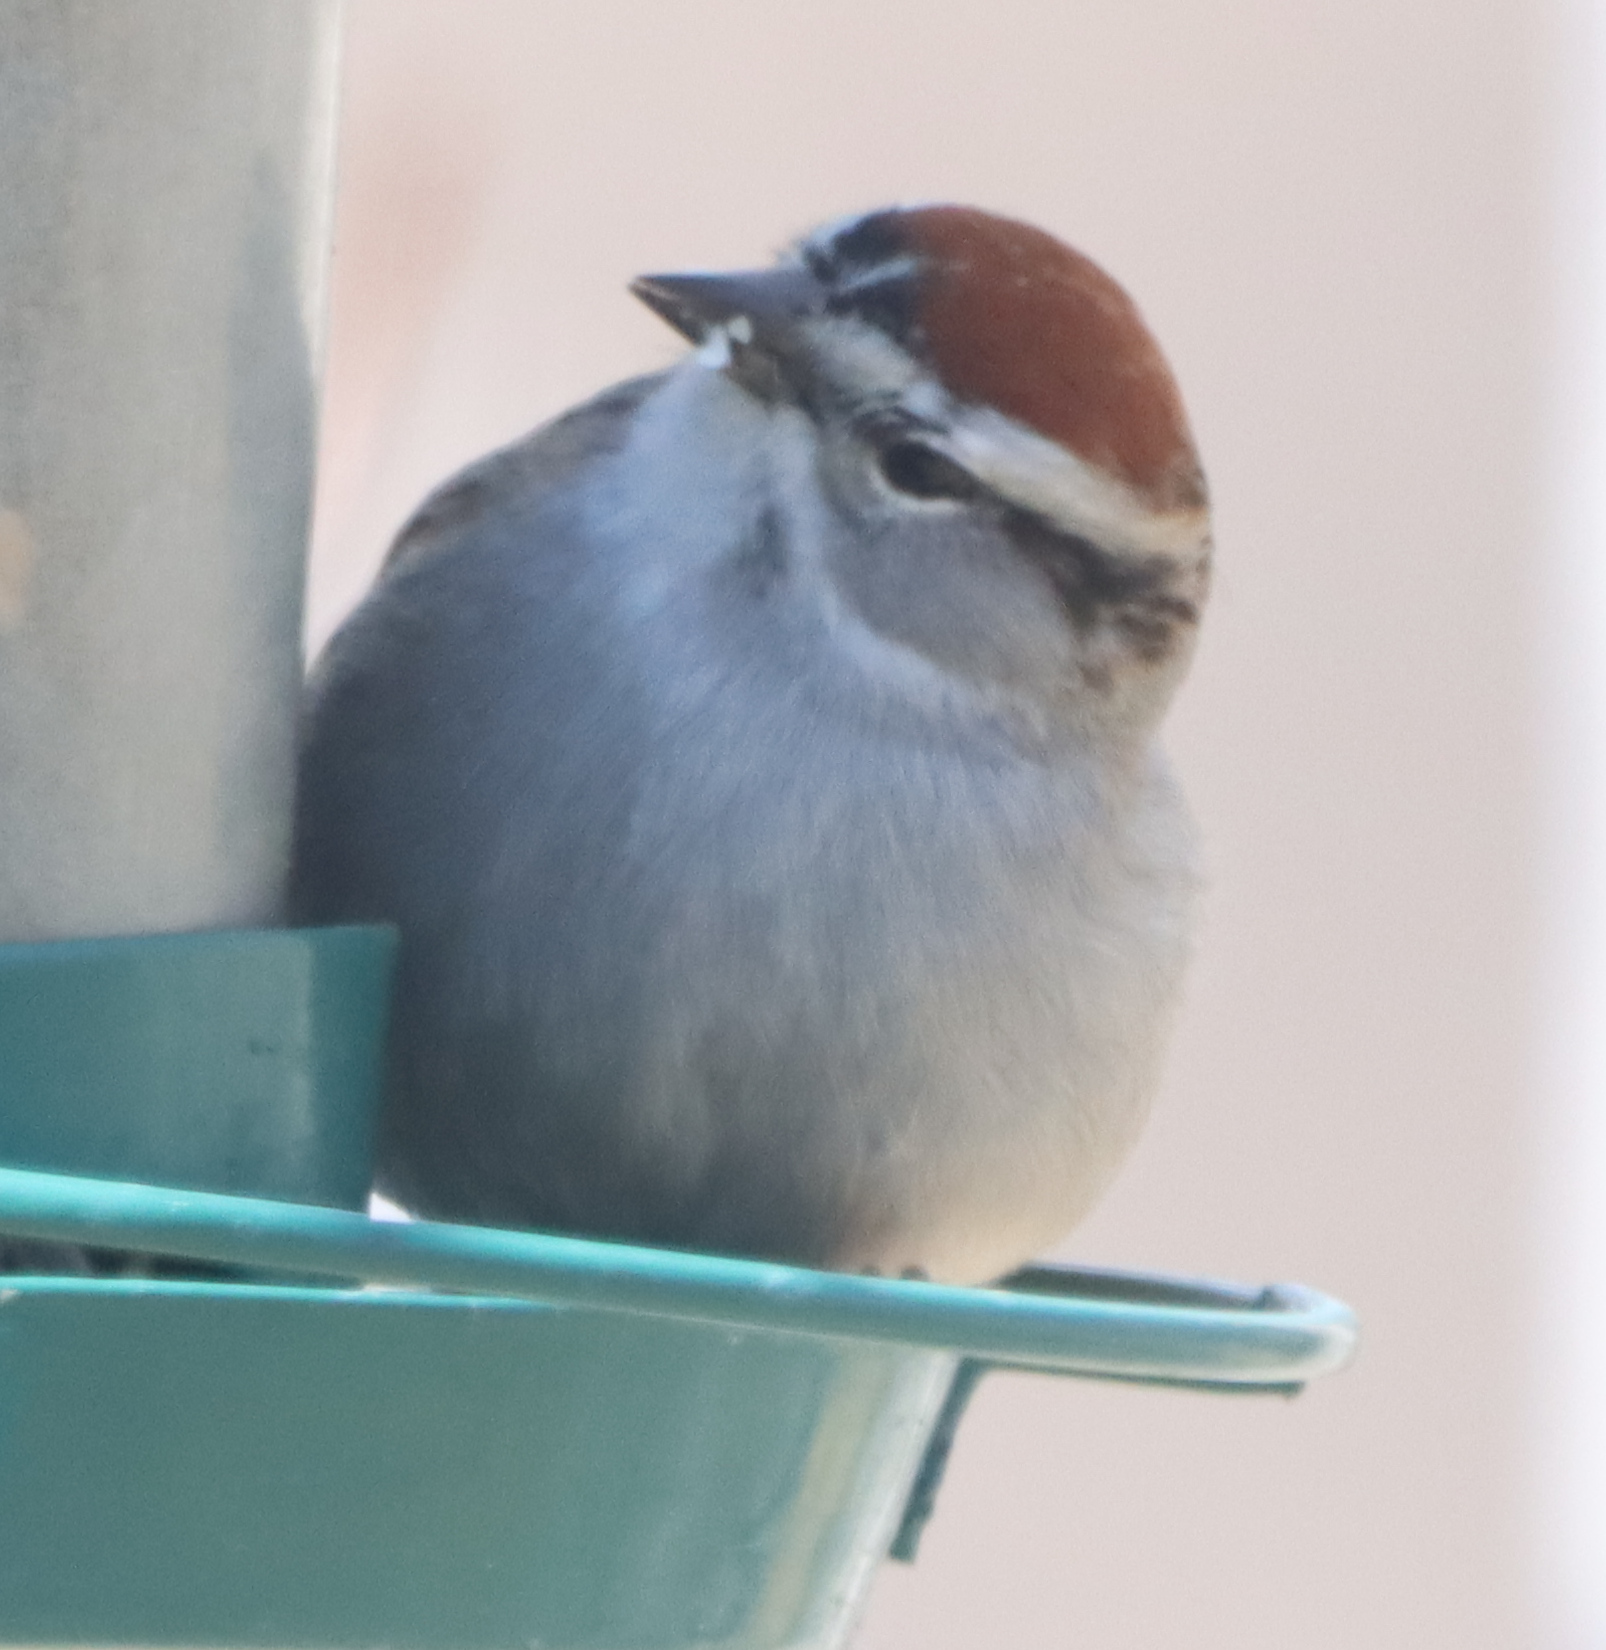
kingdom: Animalia
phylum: Chordata
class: Aves
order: Passeriformes
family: Passerellidae
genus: Spizella
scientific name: Spizella passerina
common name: Chipping sparrow
